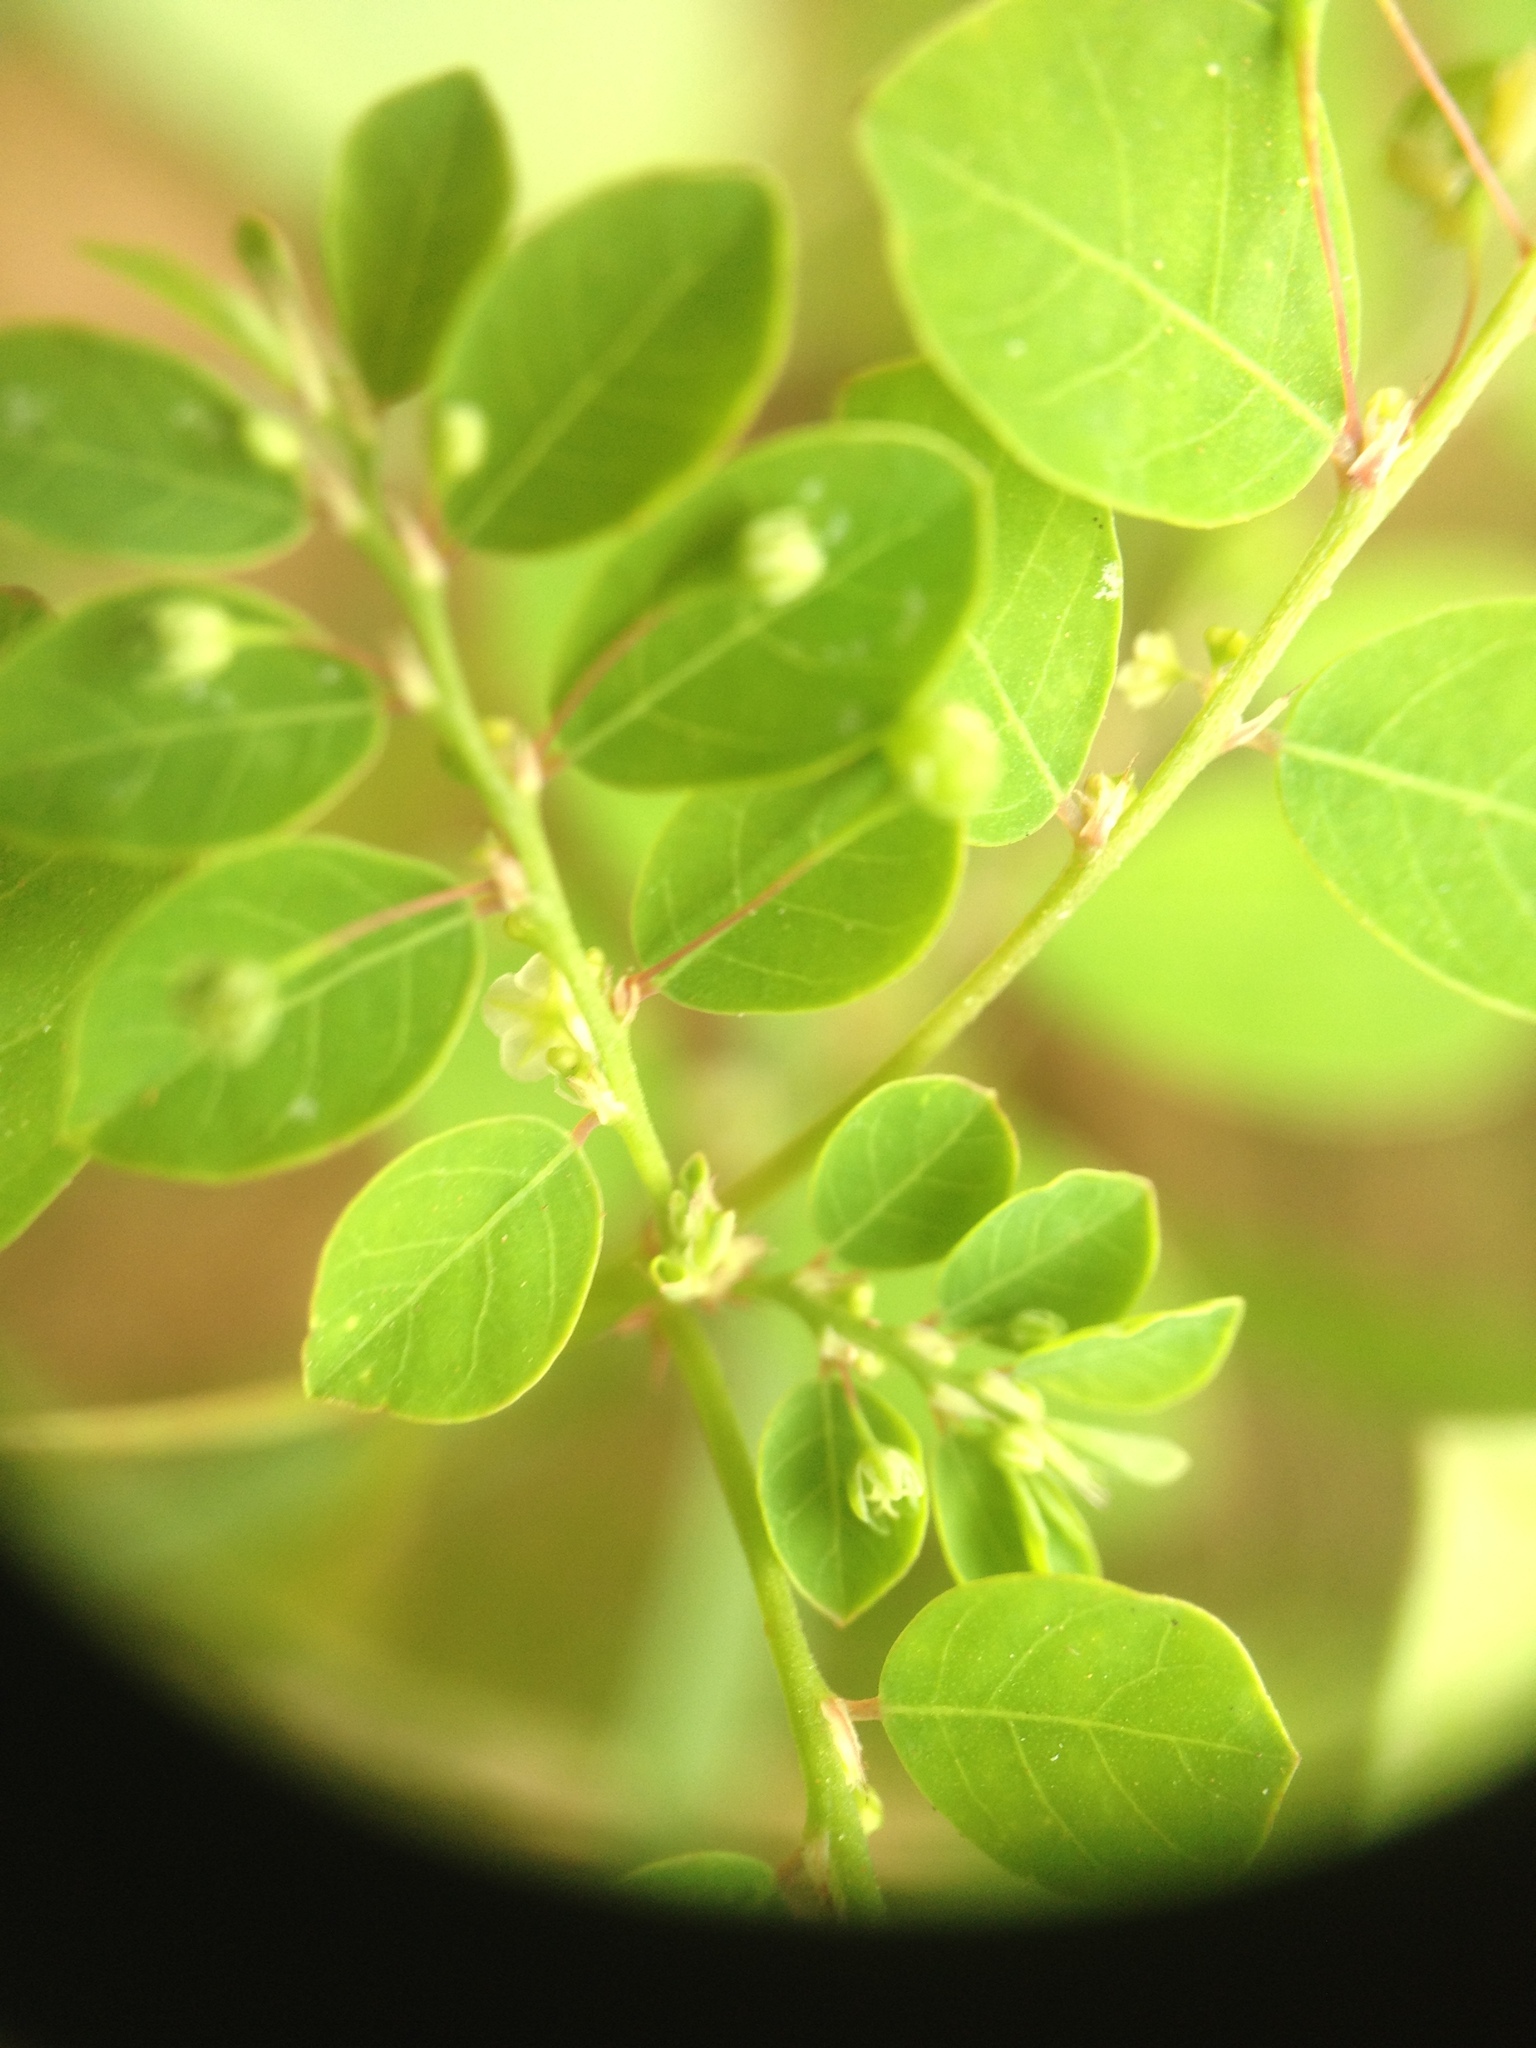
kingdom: Plantae
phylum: Tracheophyta
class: Magnoliopsida
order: Malpighiales
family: Phyllanthaceae
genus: Phyllanthus
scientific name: Phyllanthus tenellus
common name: Mascarene island leaf-flower
